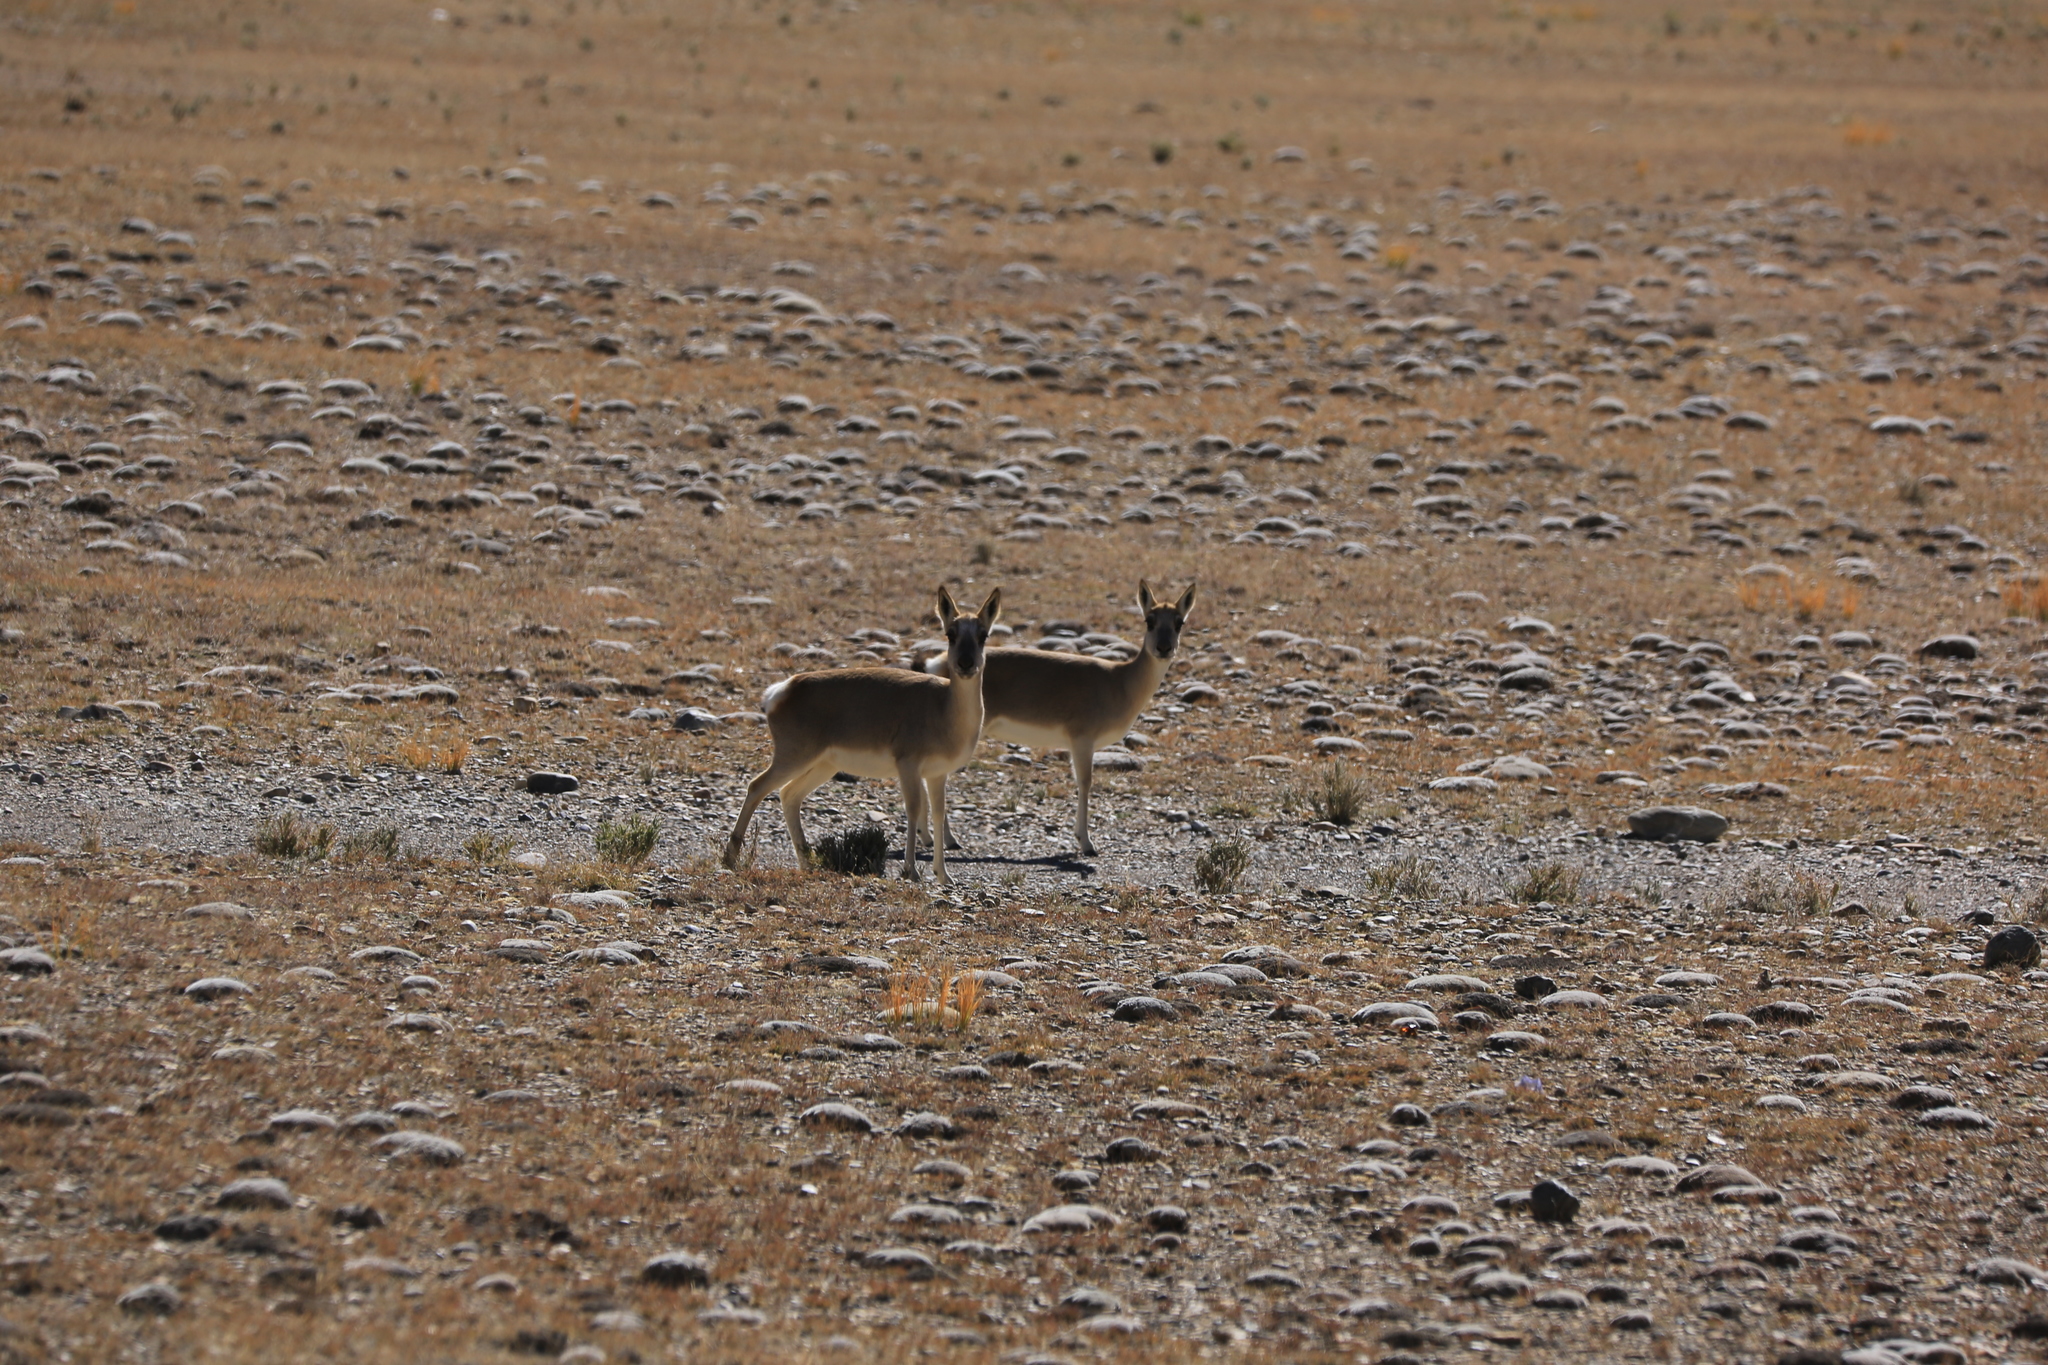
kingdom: Animalia
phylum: Chordata
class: Mammalia
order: Artiodactyla
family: Bovidae
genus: Procapra
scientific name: Procapra picticaudata
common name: Tibetan gazelle
